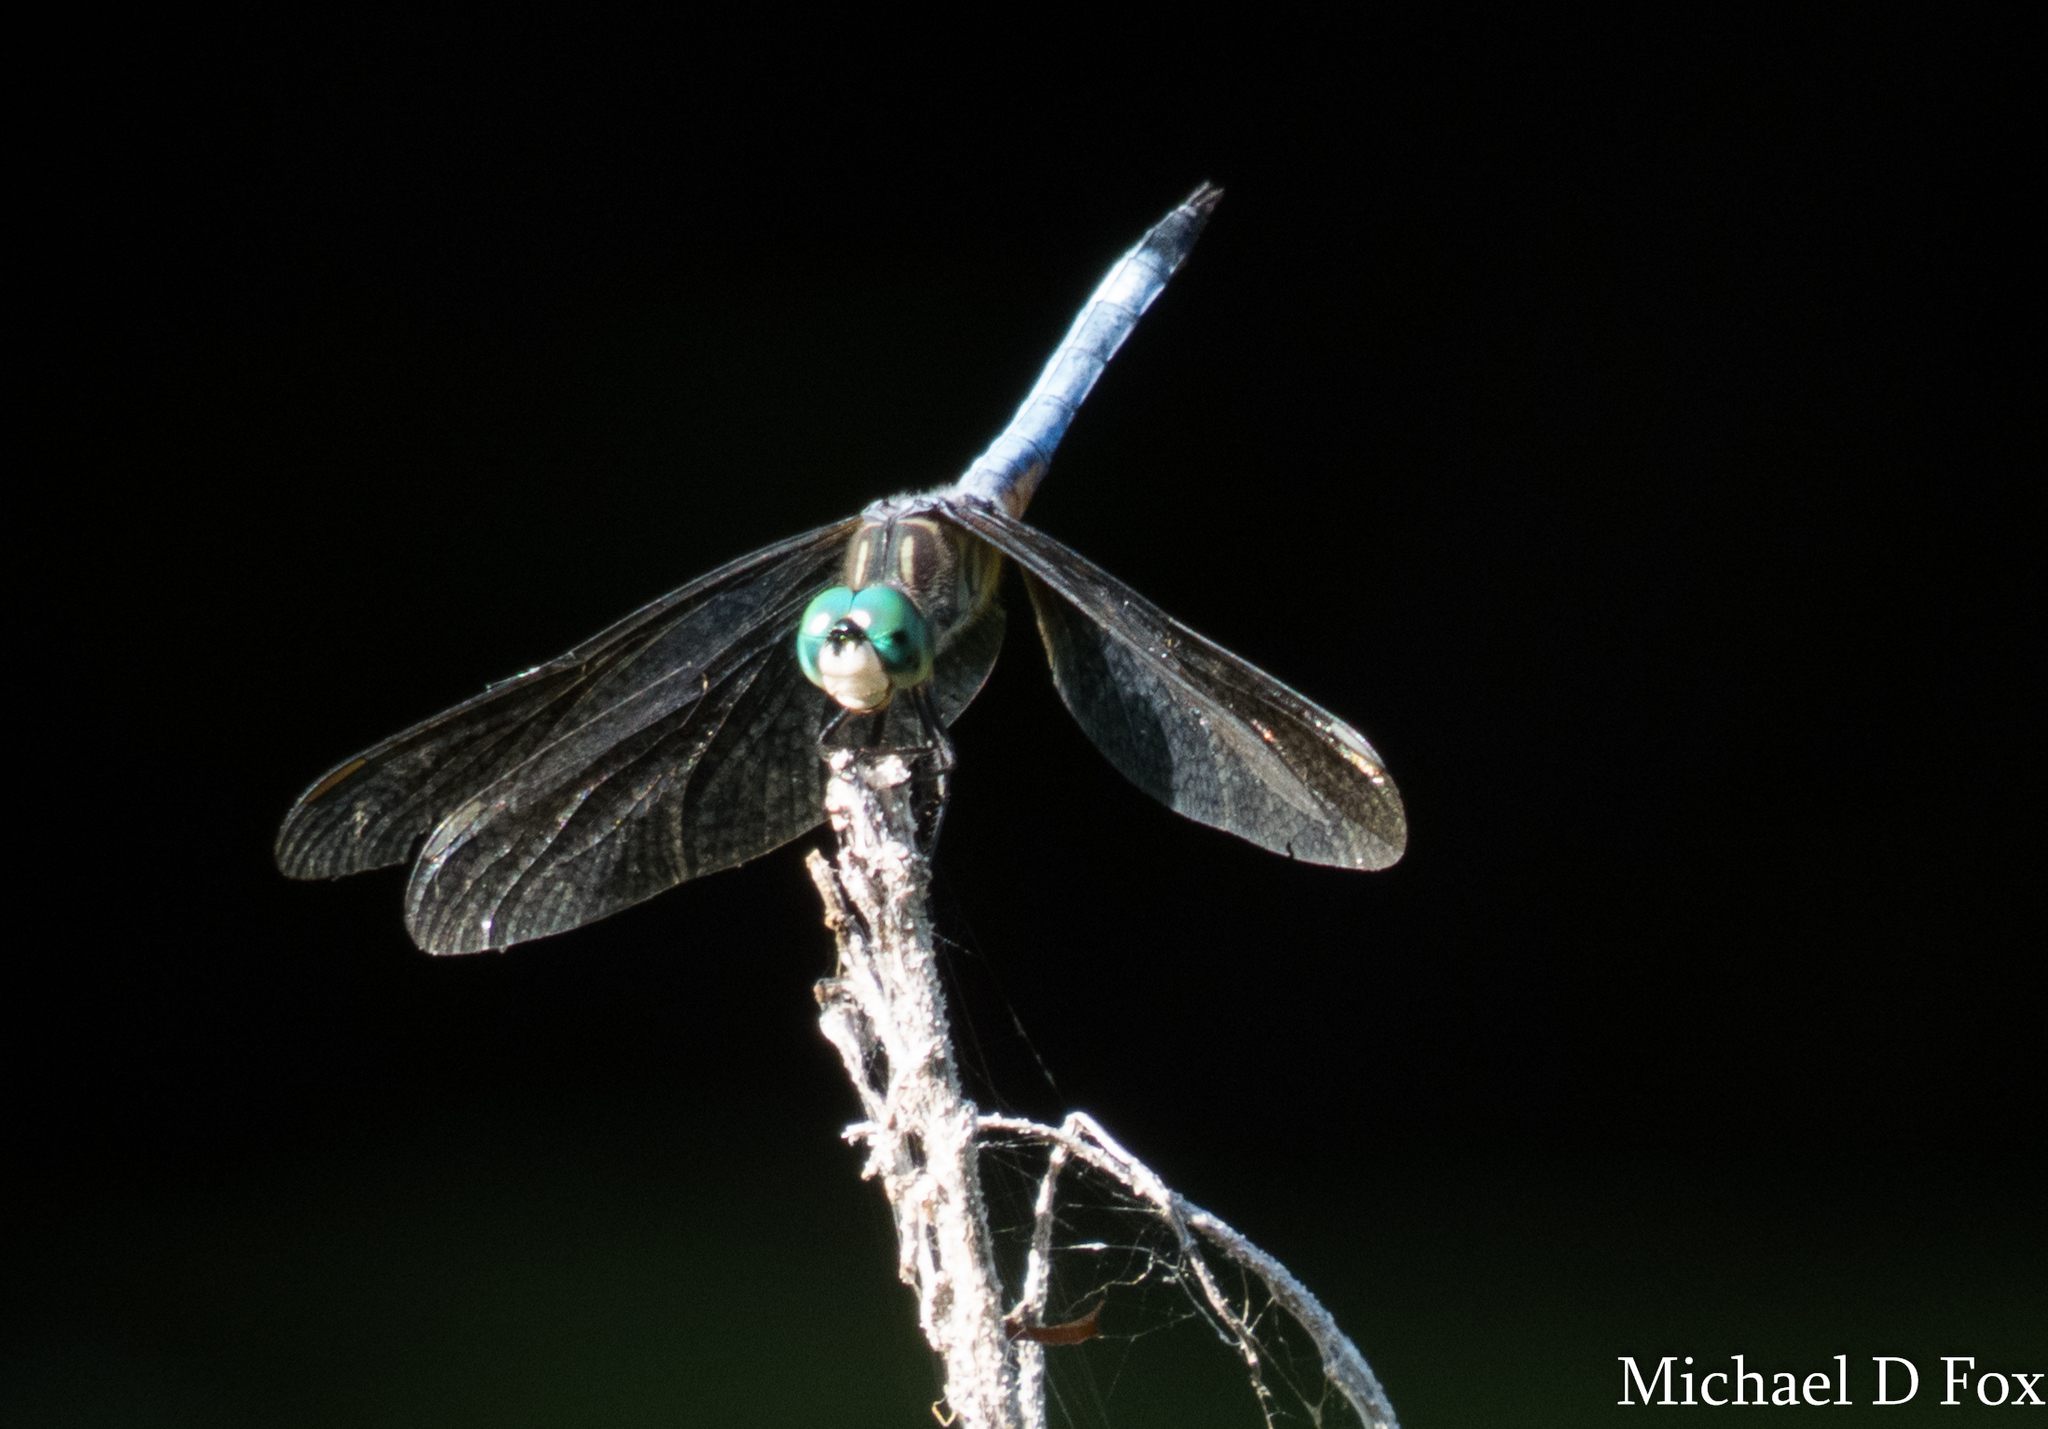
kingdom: Animalia
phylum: Arthropoda
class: Insecta
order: Odonata
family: Libellulidae
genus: Pachydiplax
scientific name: Pachydiplax longipennis
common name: Blue dasher
